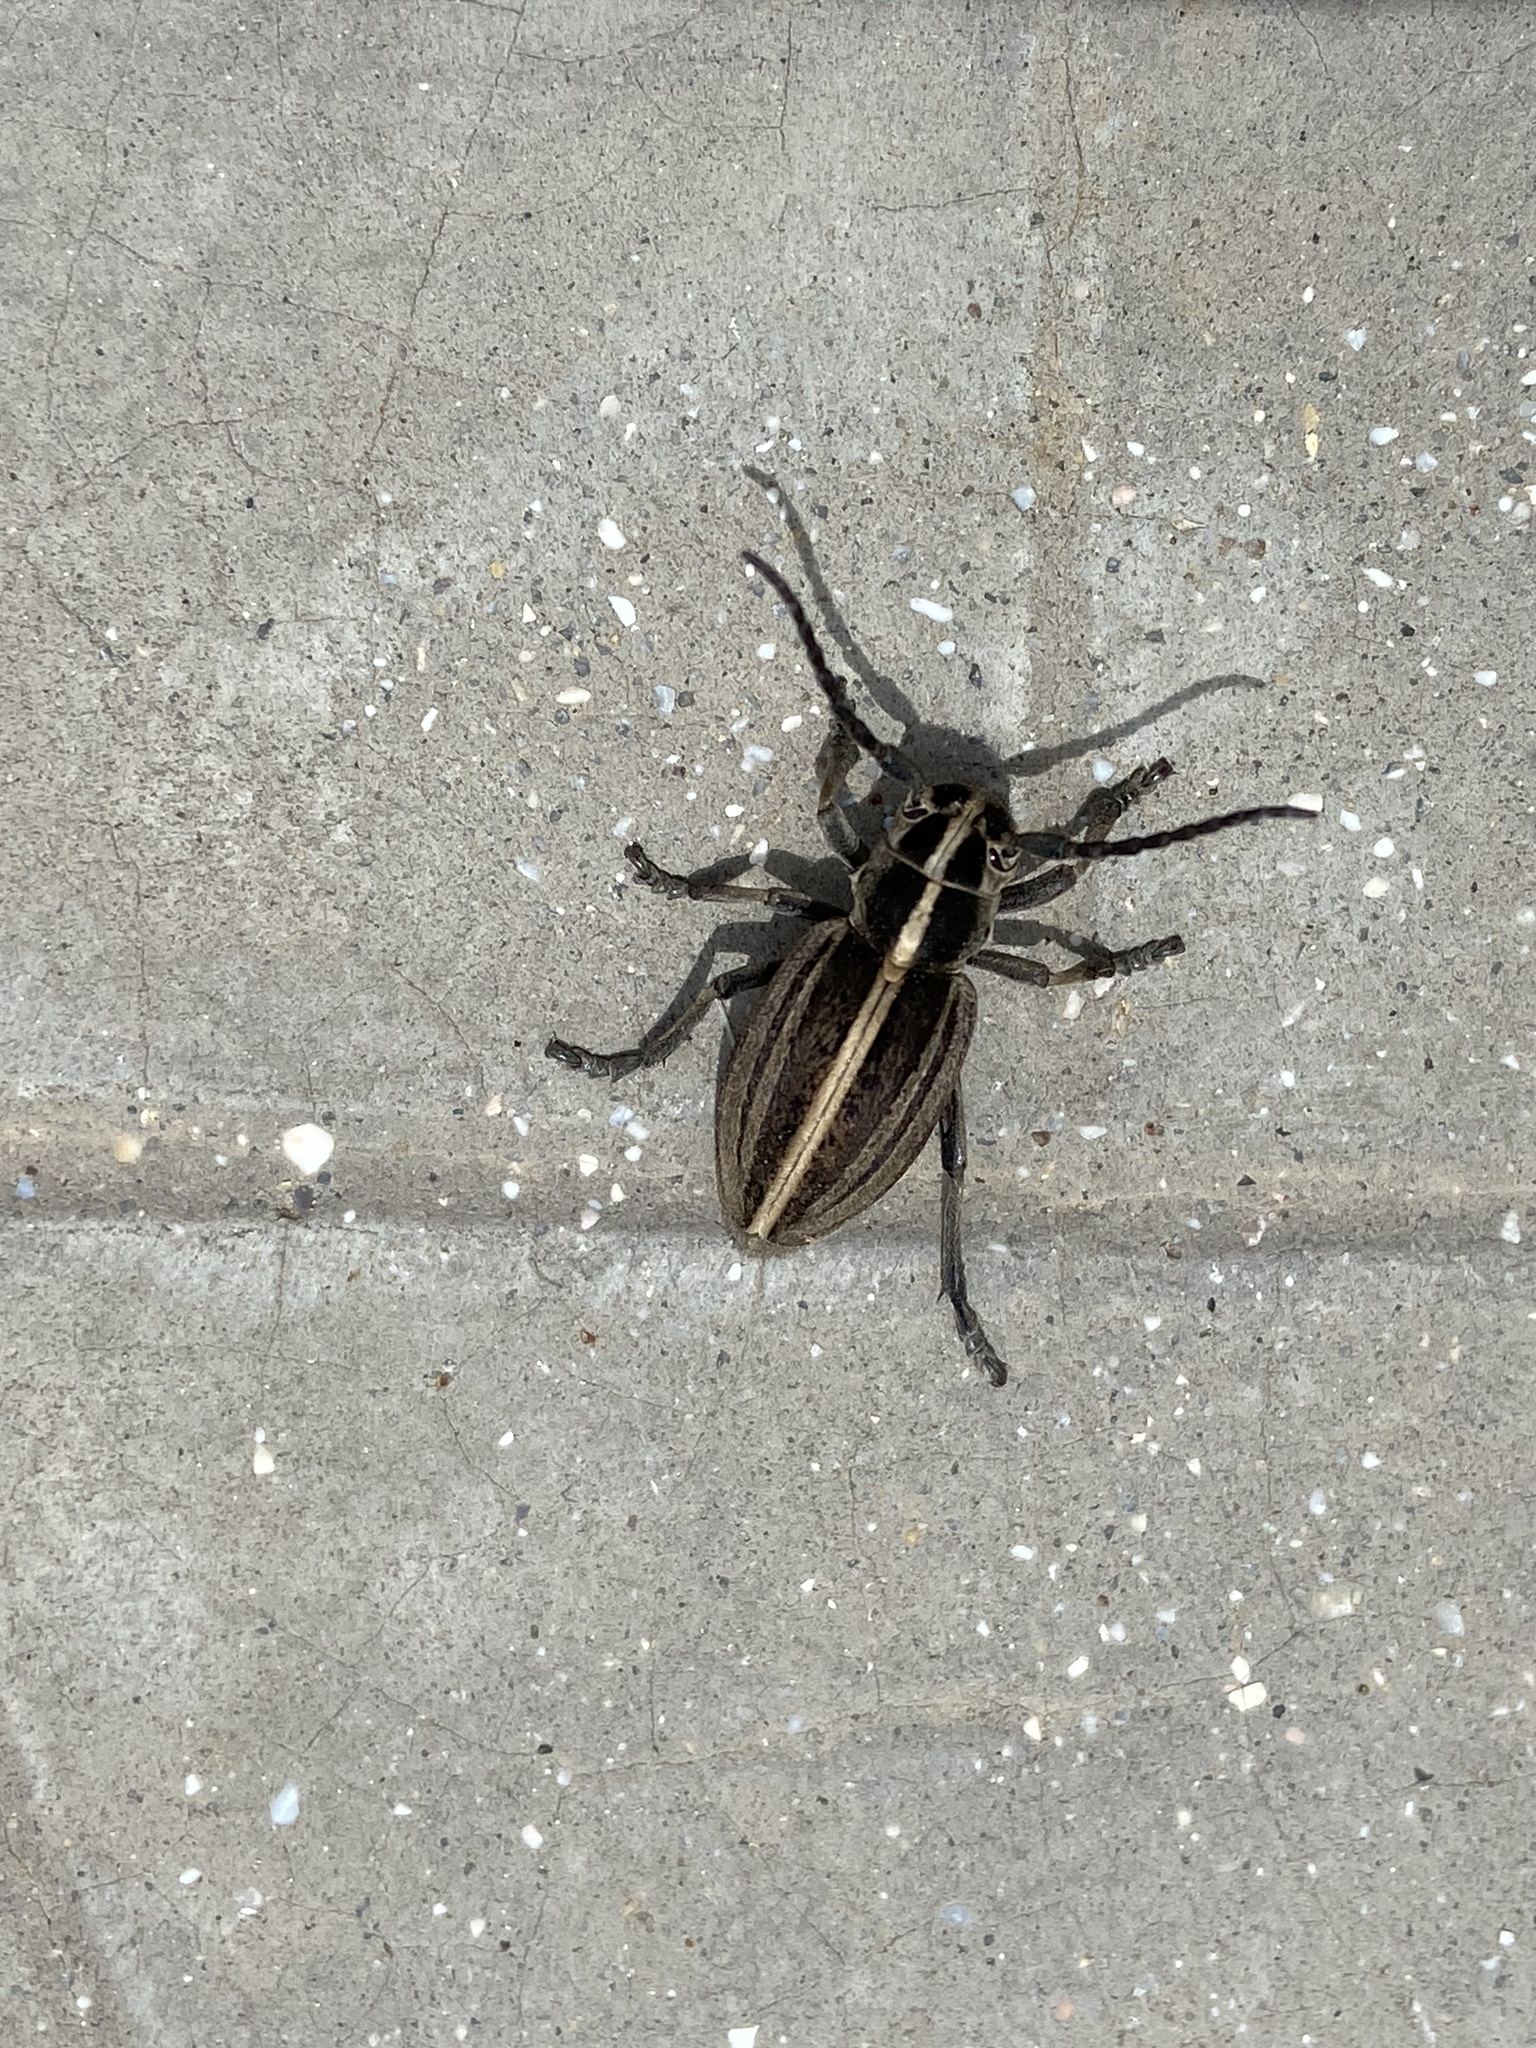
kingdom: Animalia
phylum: Arthropoda
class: Insecta
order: Coleoptera
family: Cerambycidae
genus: Dorcadion
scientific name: Dorcadion etruscum
